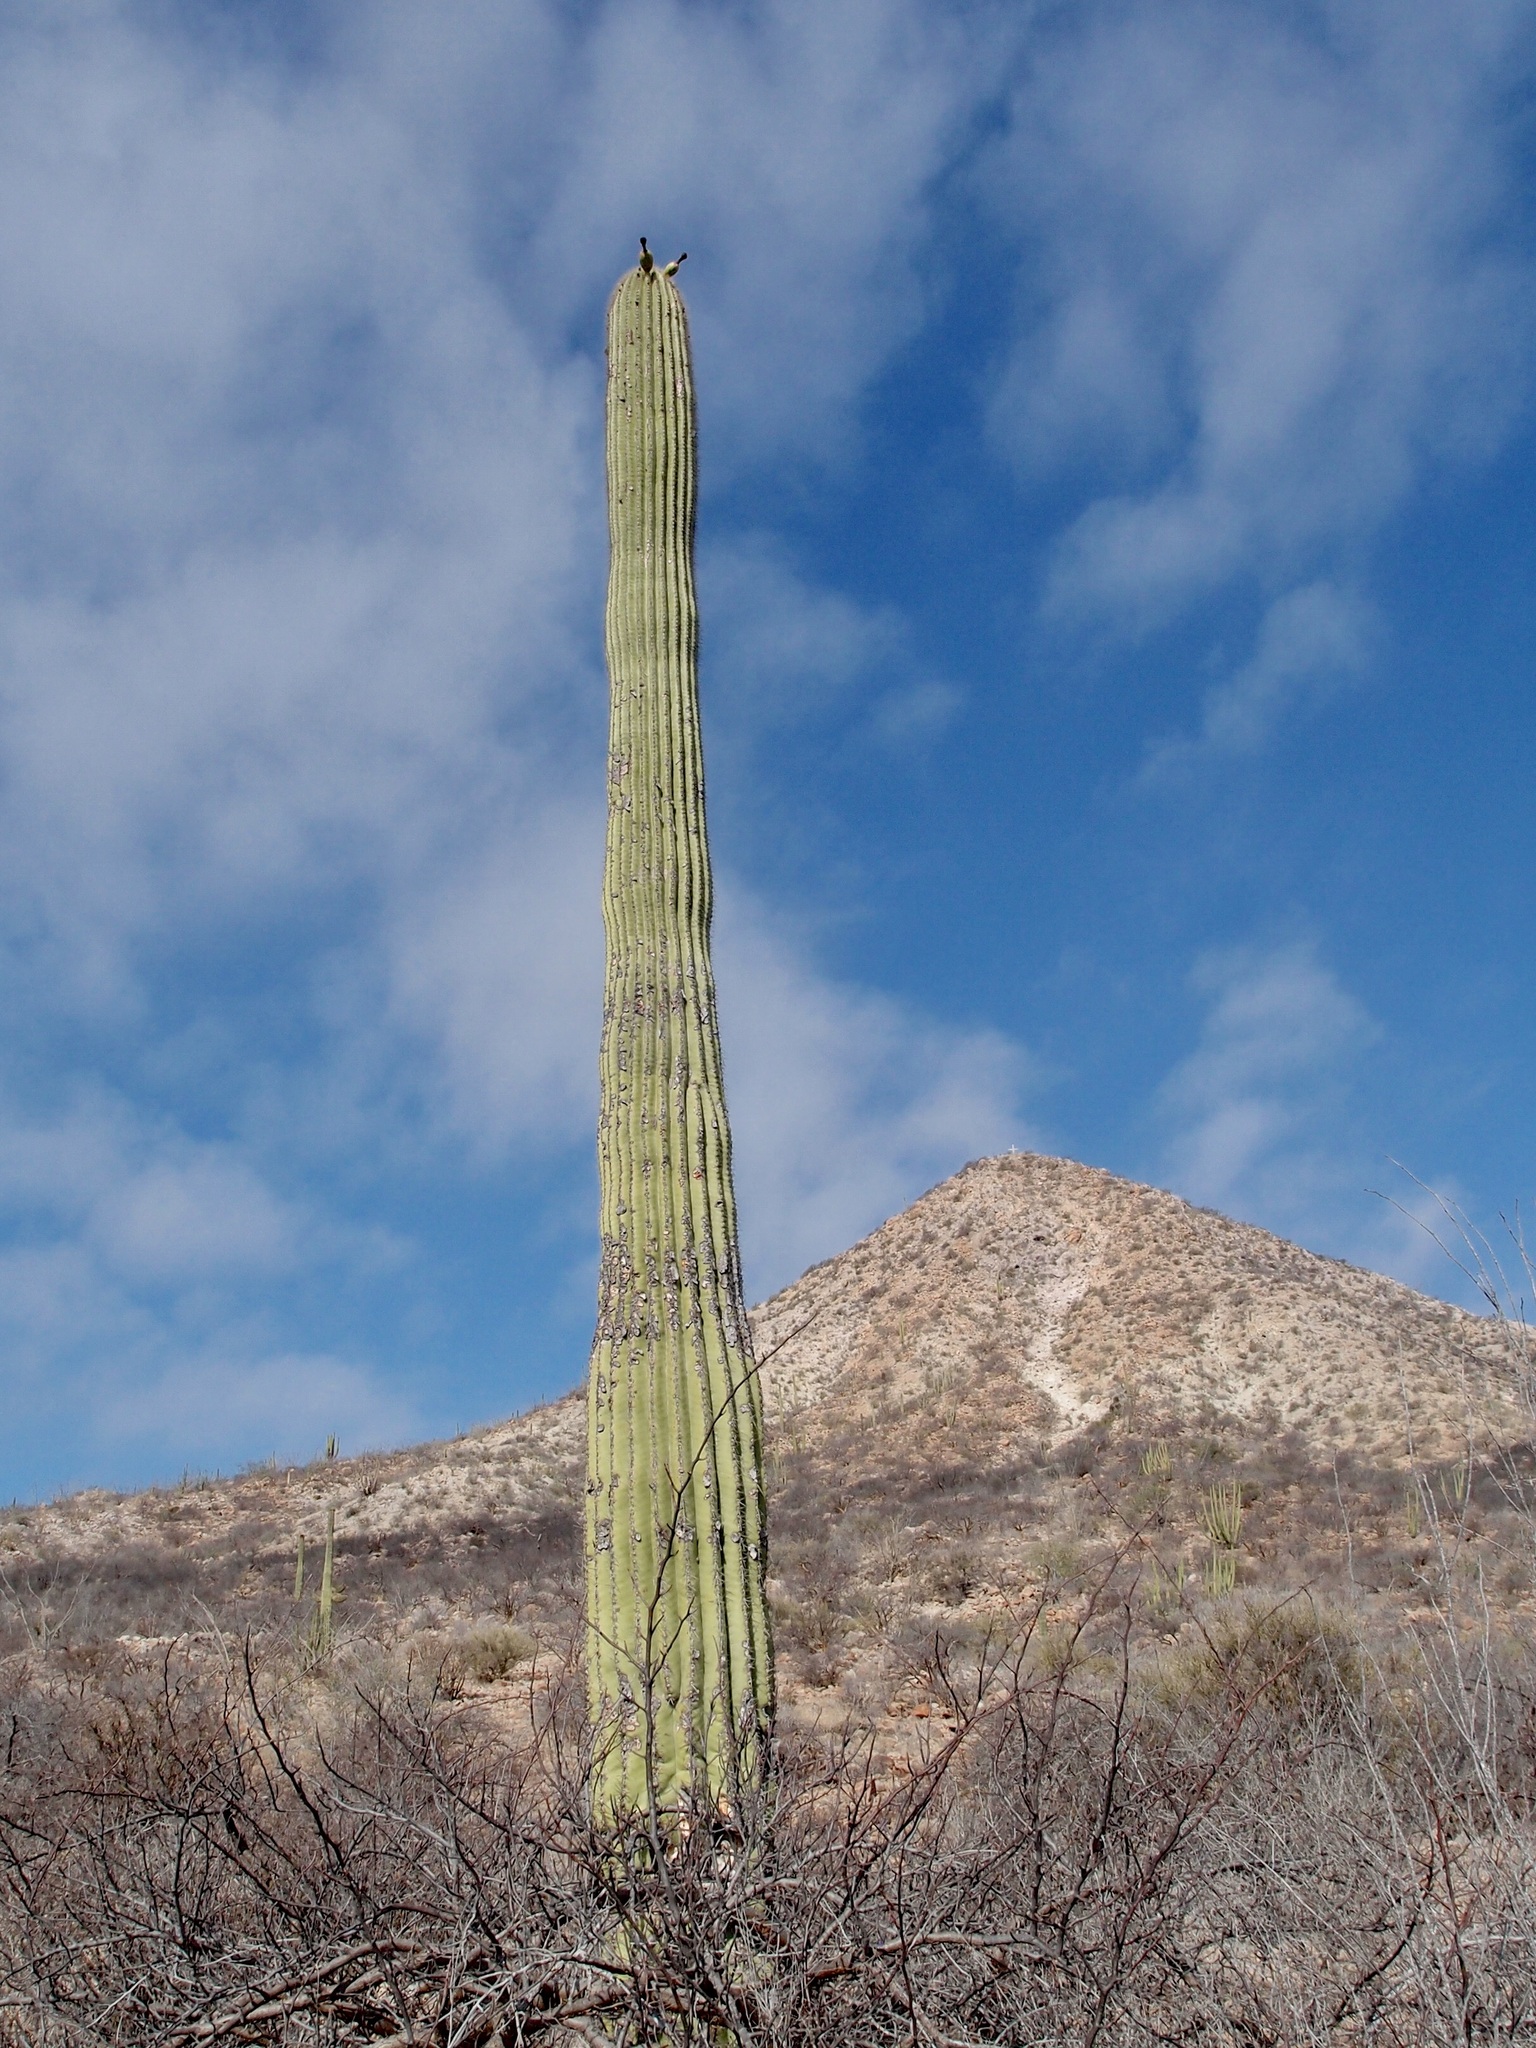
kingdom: Plantae
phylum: Tracheophyta
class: Magnoliopsida
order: Caryophyllales
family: Cactaceae
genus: Carnegiea
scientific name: Carnegiea gigantea
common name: Saguaro
